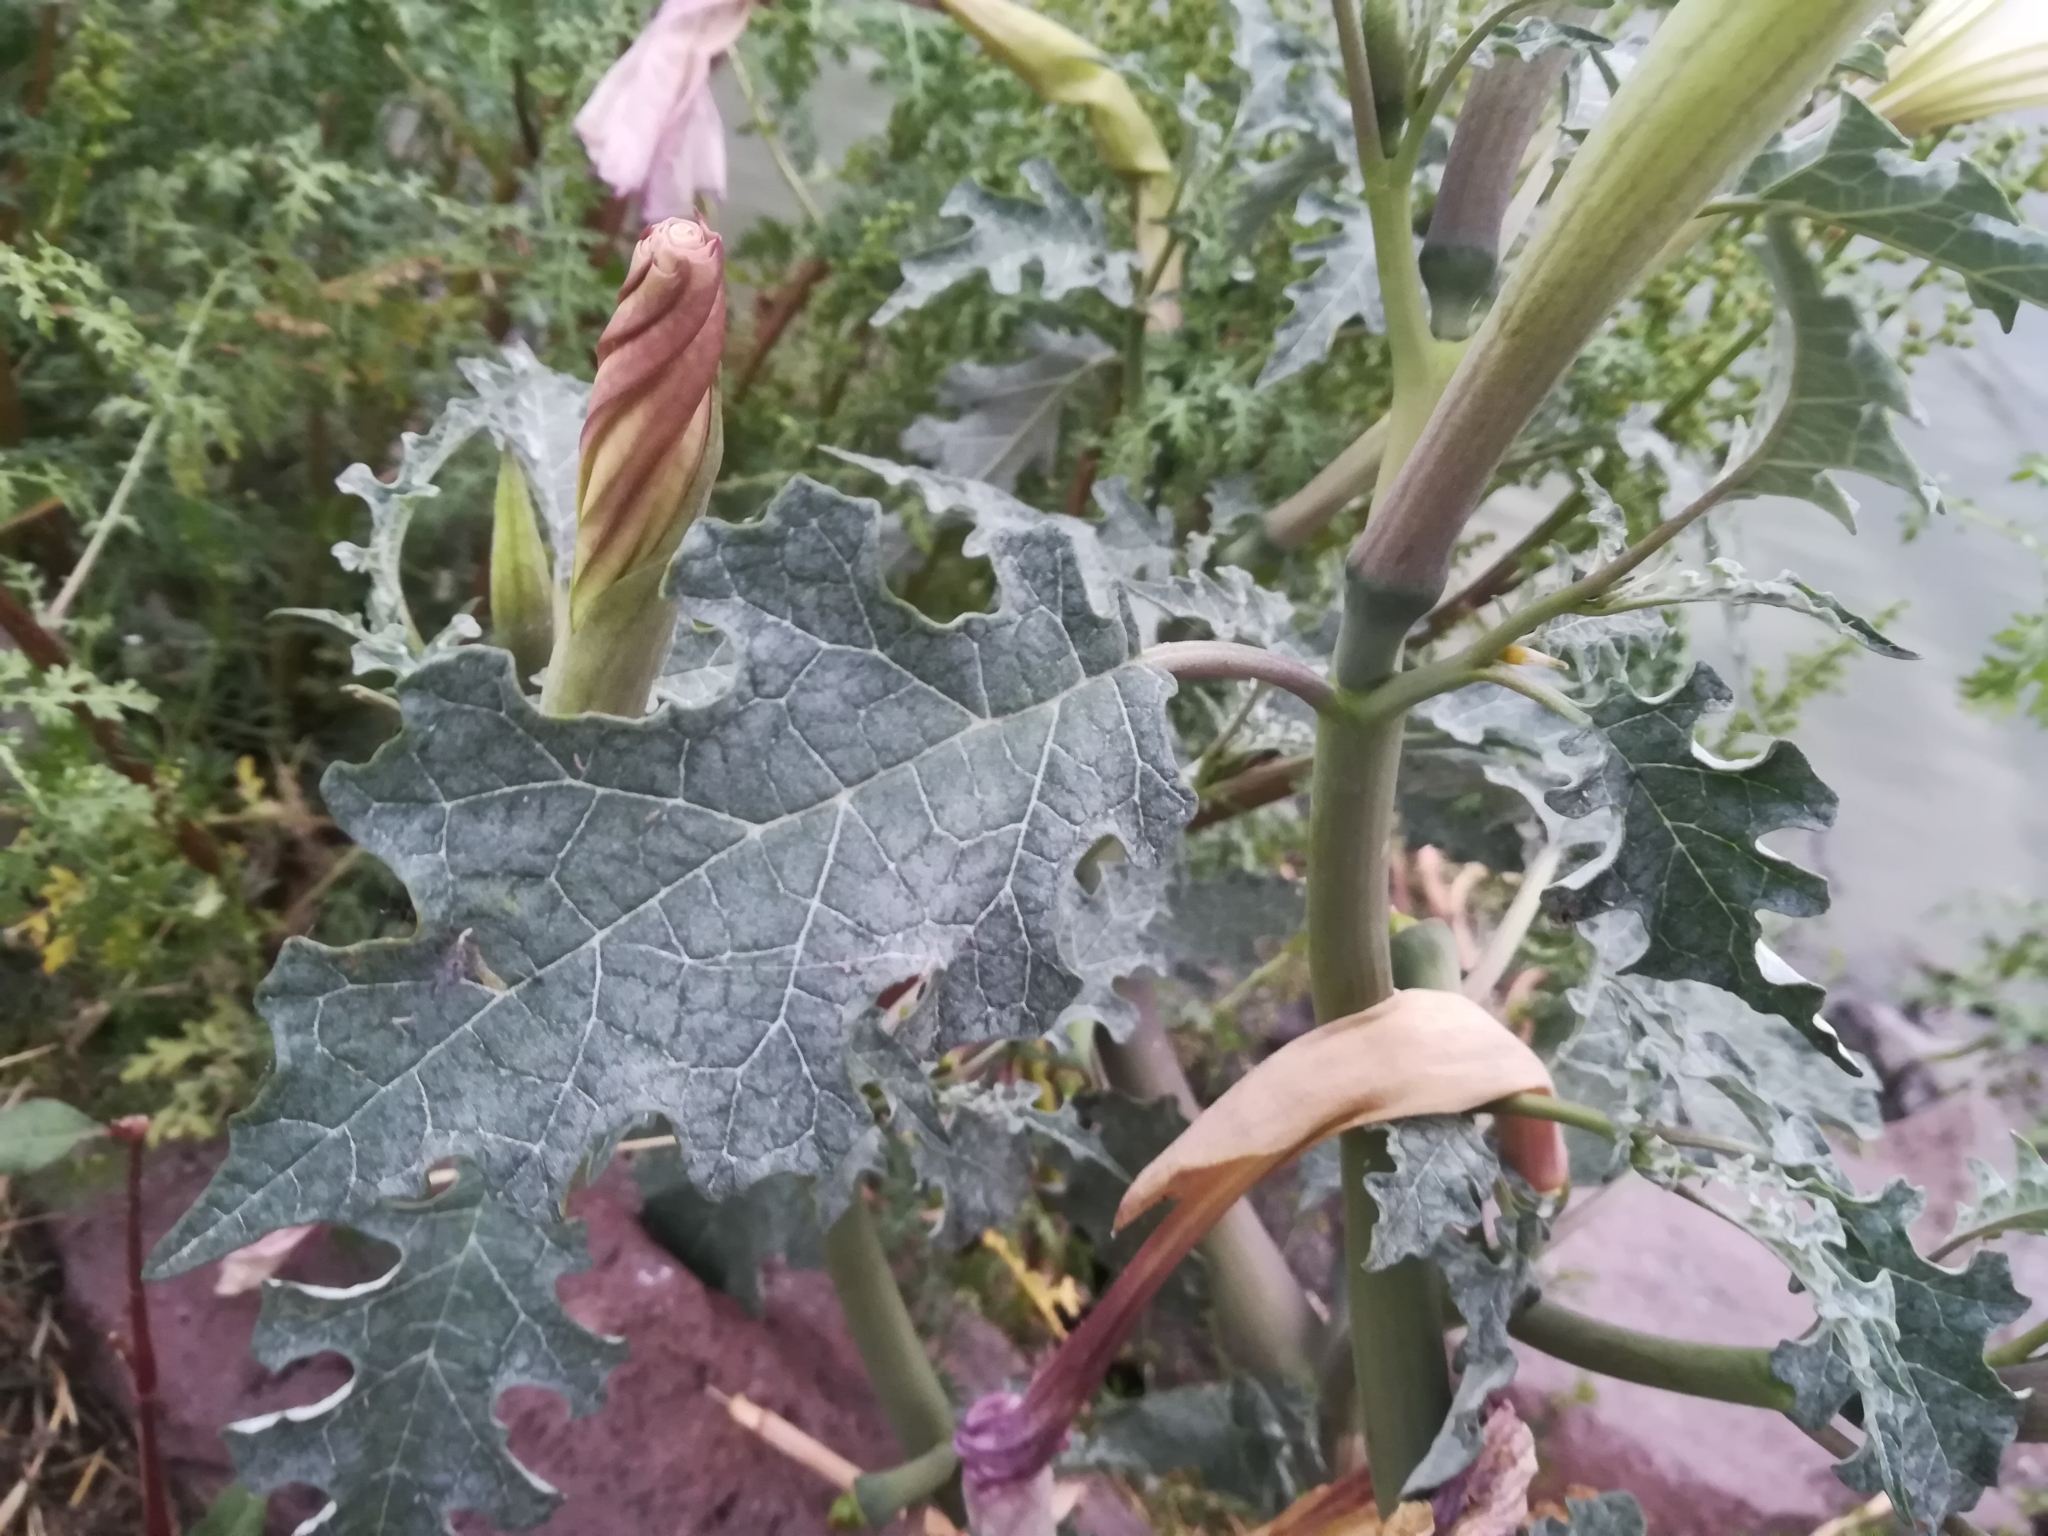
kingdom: Plantae
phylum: Tracheophyta
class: Magnoliopsida
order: Solanales
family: Solanaceae
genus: Datura
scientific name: Datura ceratocaula
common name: Latin thorn-apple
